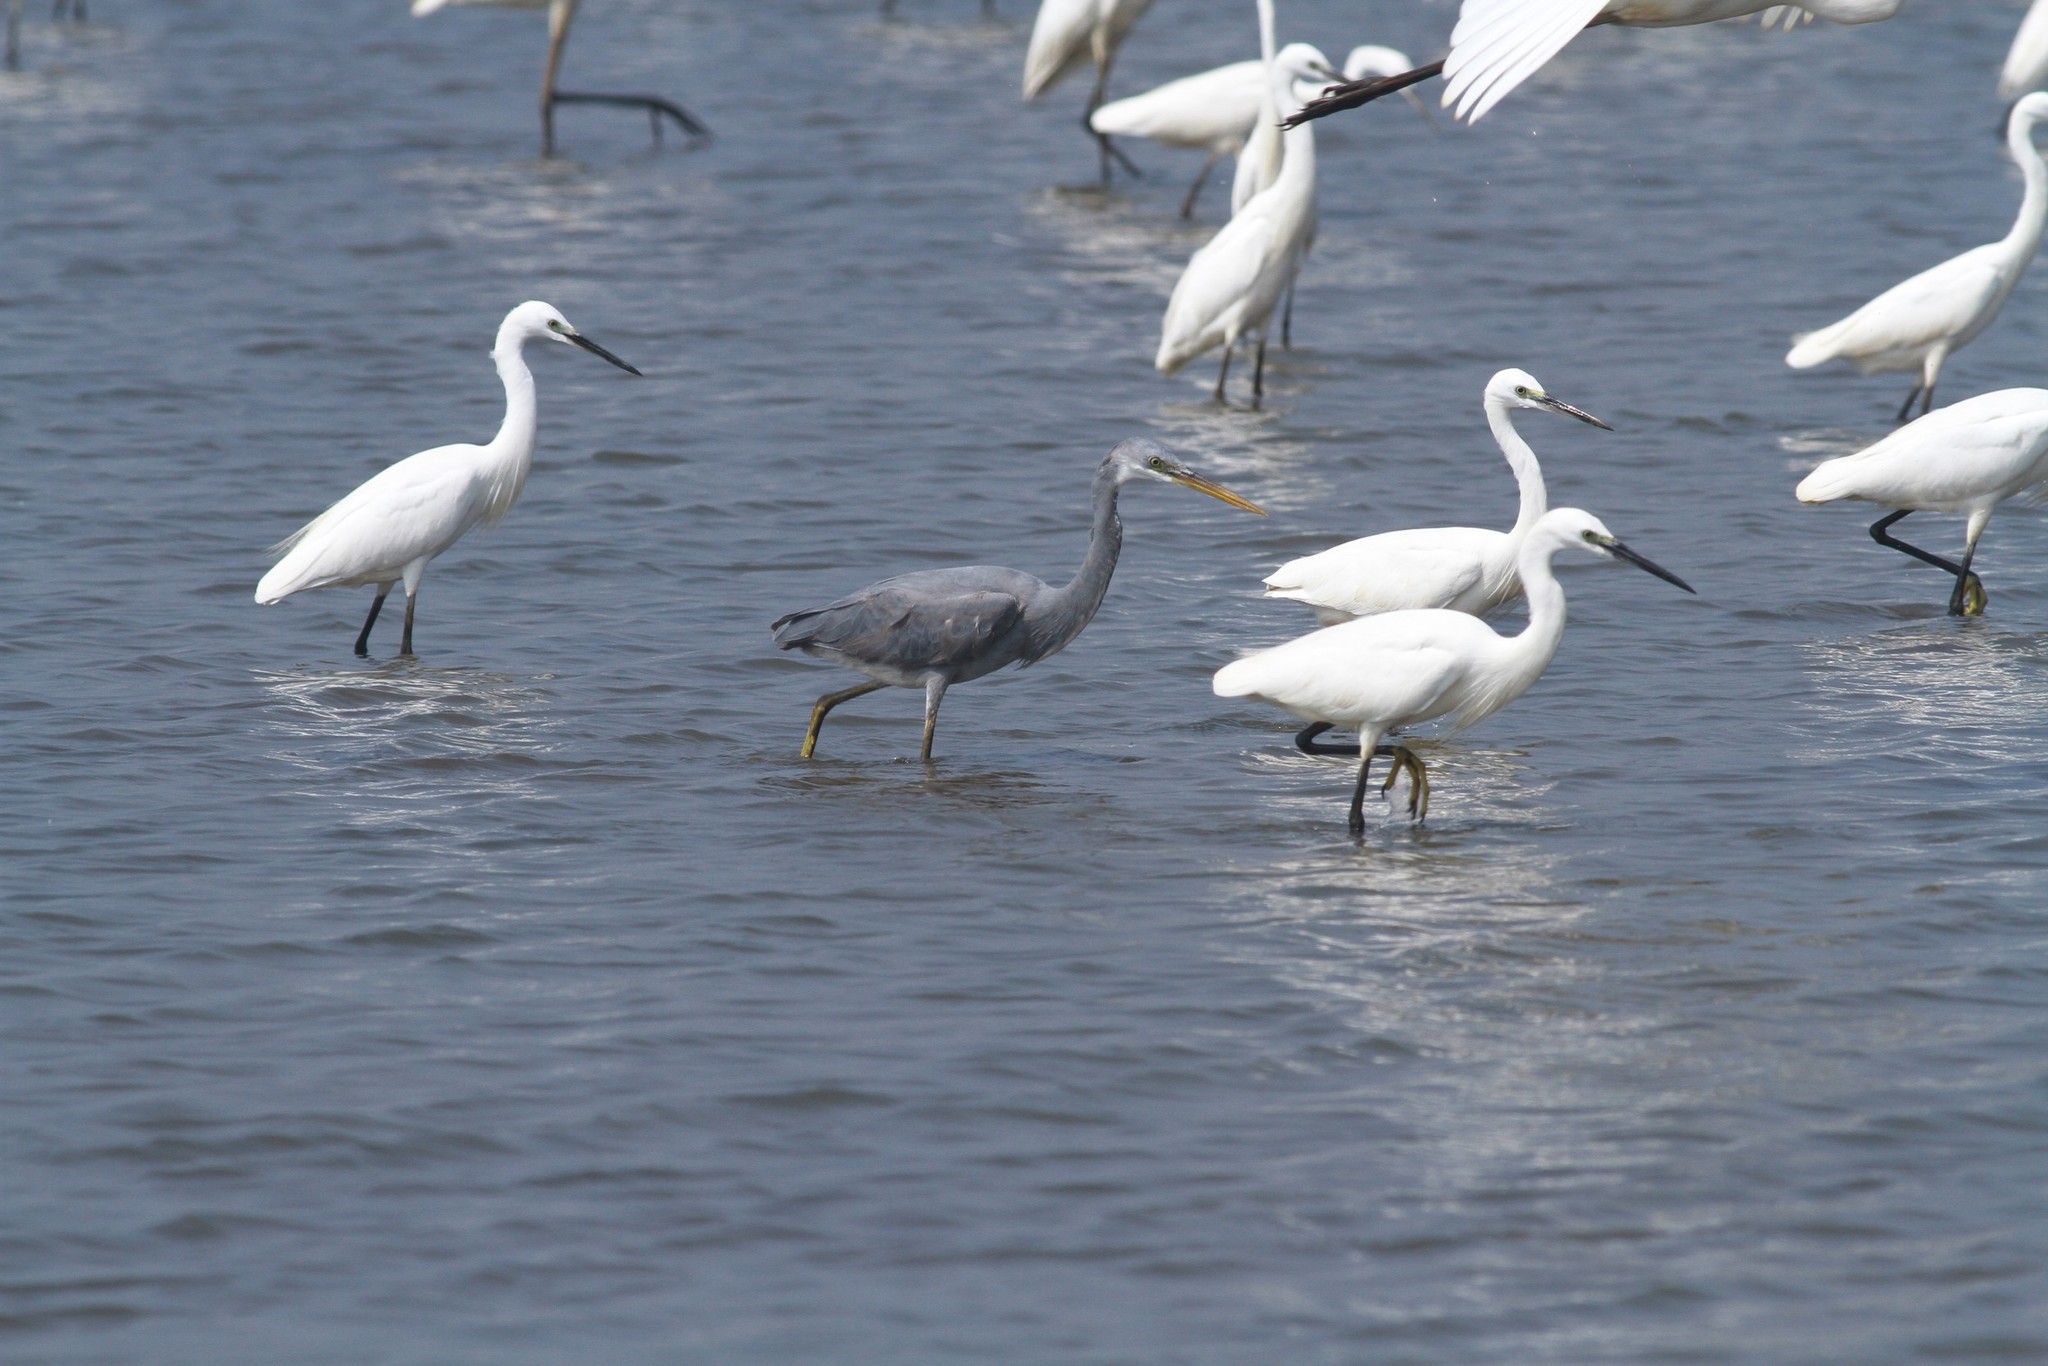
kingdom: Animalia
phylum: Chordata
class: Aves
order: Pelecaniformes
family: Ardeidae
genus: Egretta
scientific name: Egretta gularis
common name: Western reef-heron
